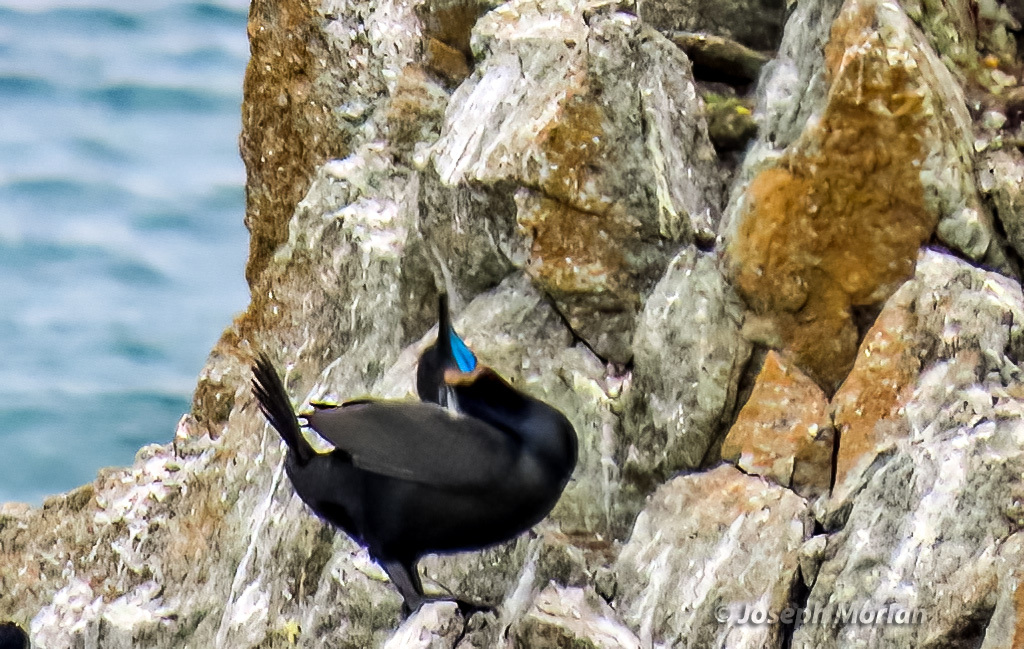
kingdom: Animalia
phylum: Chordata
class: Aves
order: Suliformes
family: Phalacrocoracidae
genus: Urile
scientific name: Urile penicillatus
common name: Brandt's cormorant
